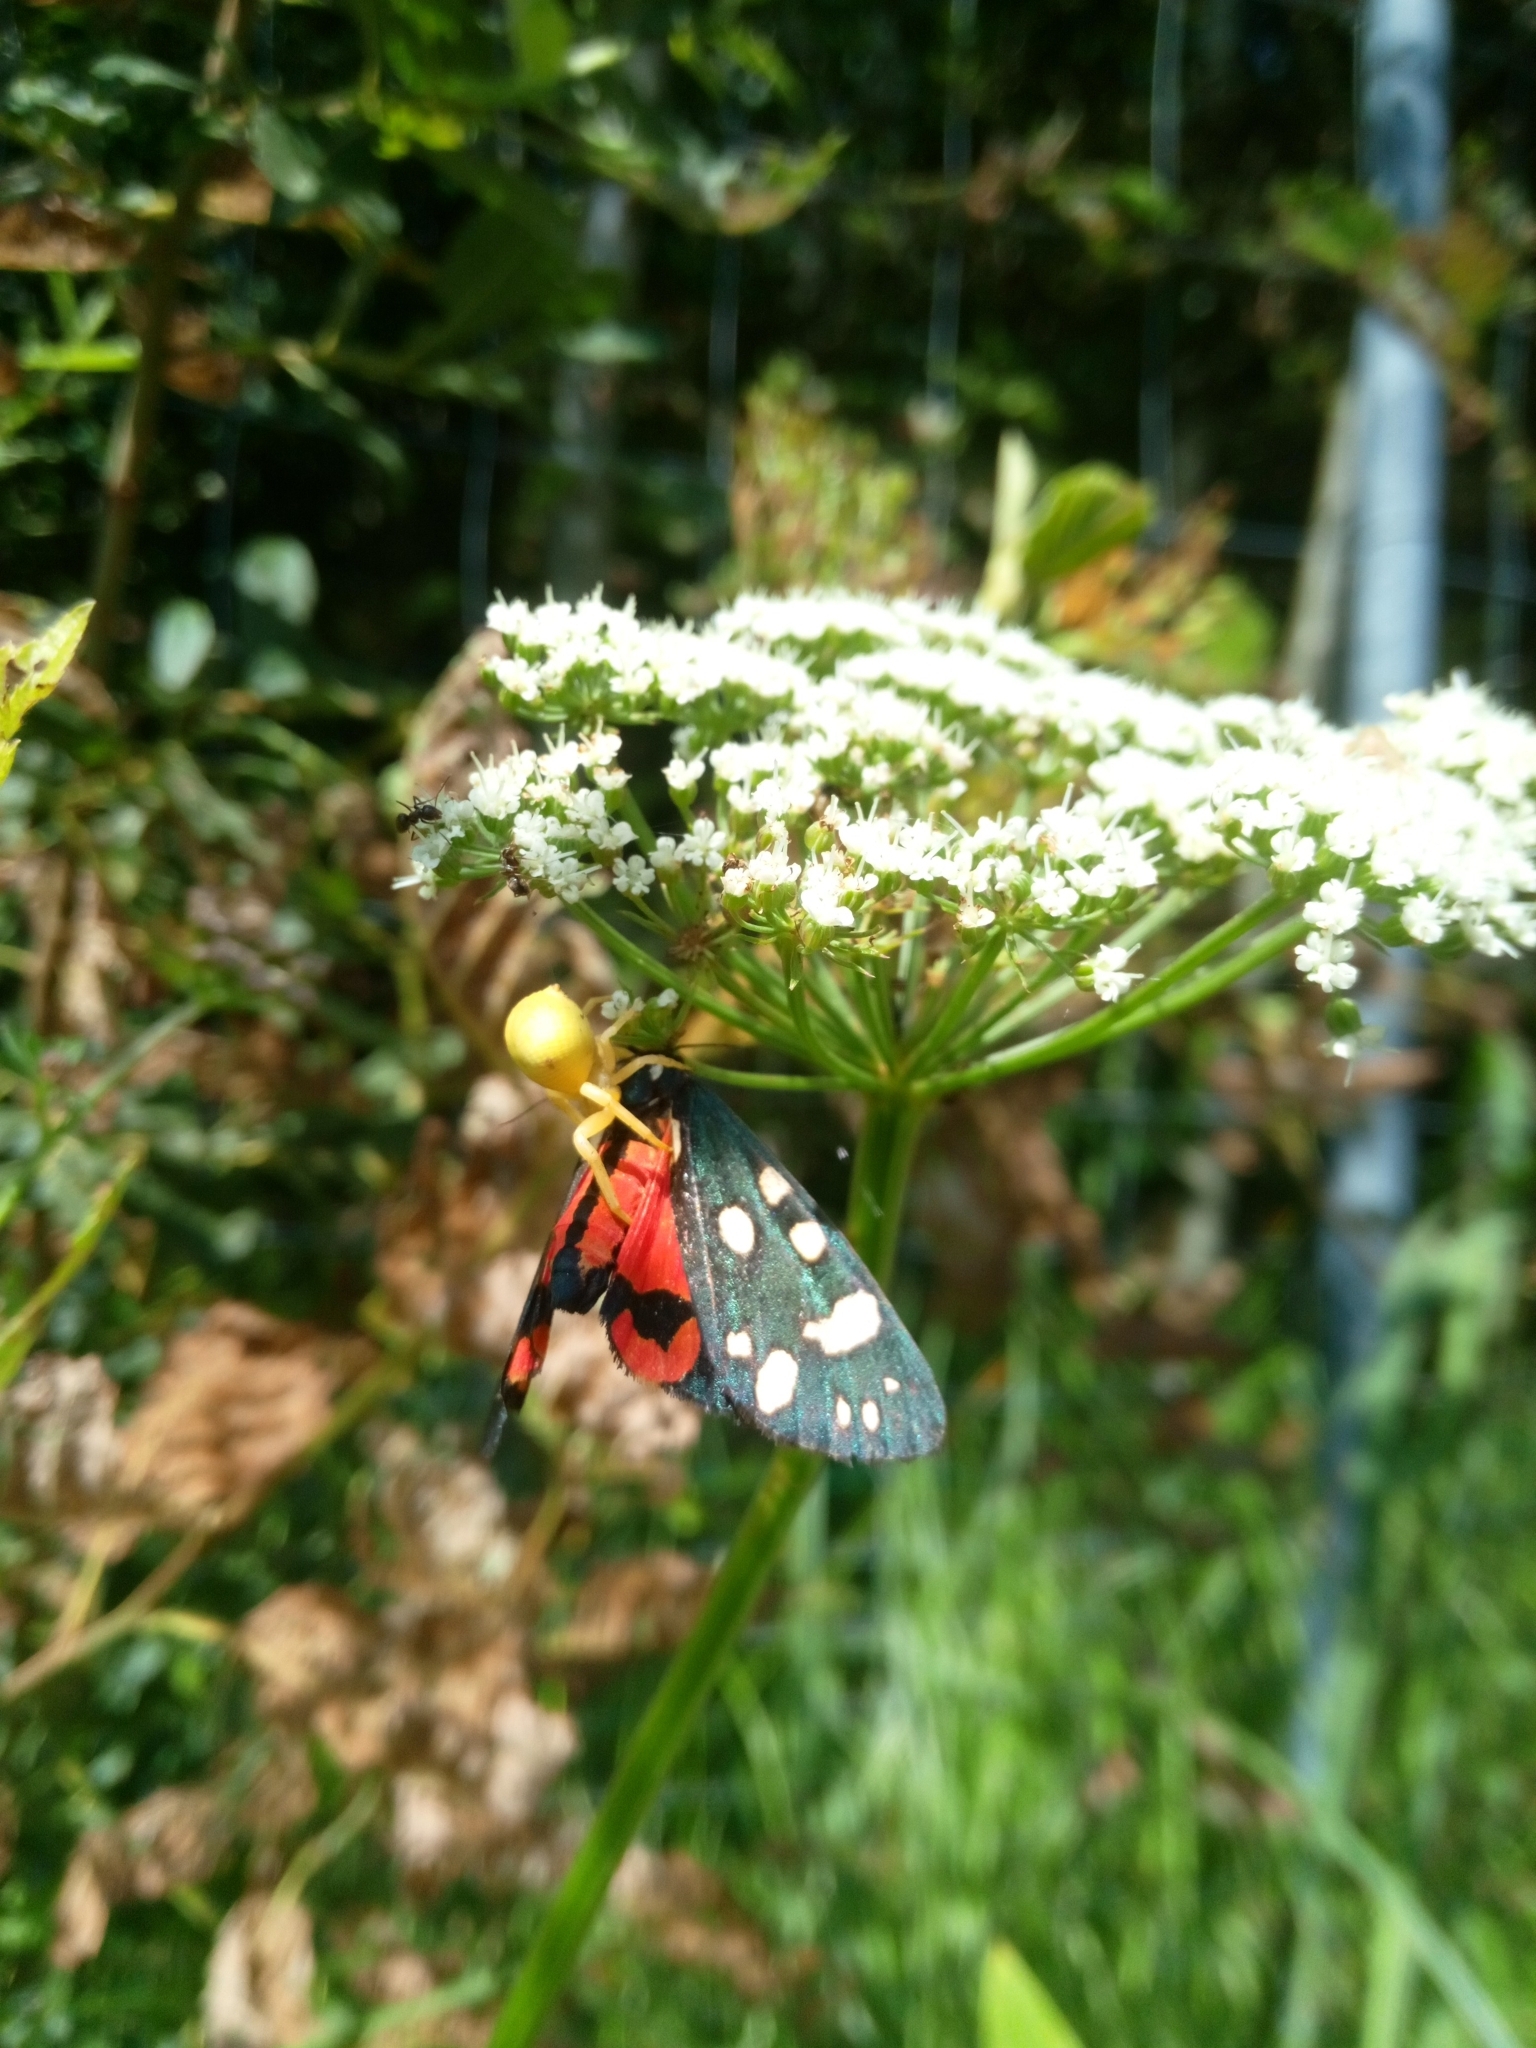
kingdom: Animalia
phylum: Arthropoda
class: Arachnida
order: Araneae
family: Thomisidae
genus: Misumena
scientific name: Misumena vatia
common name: Goldenrod crab spider
